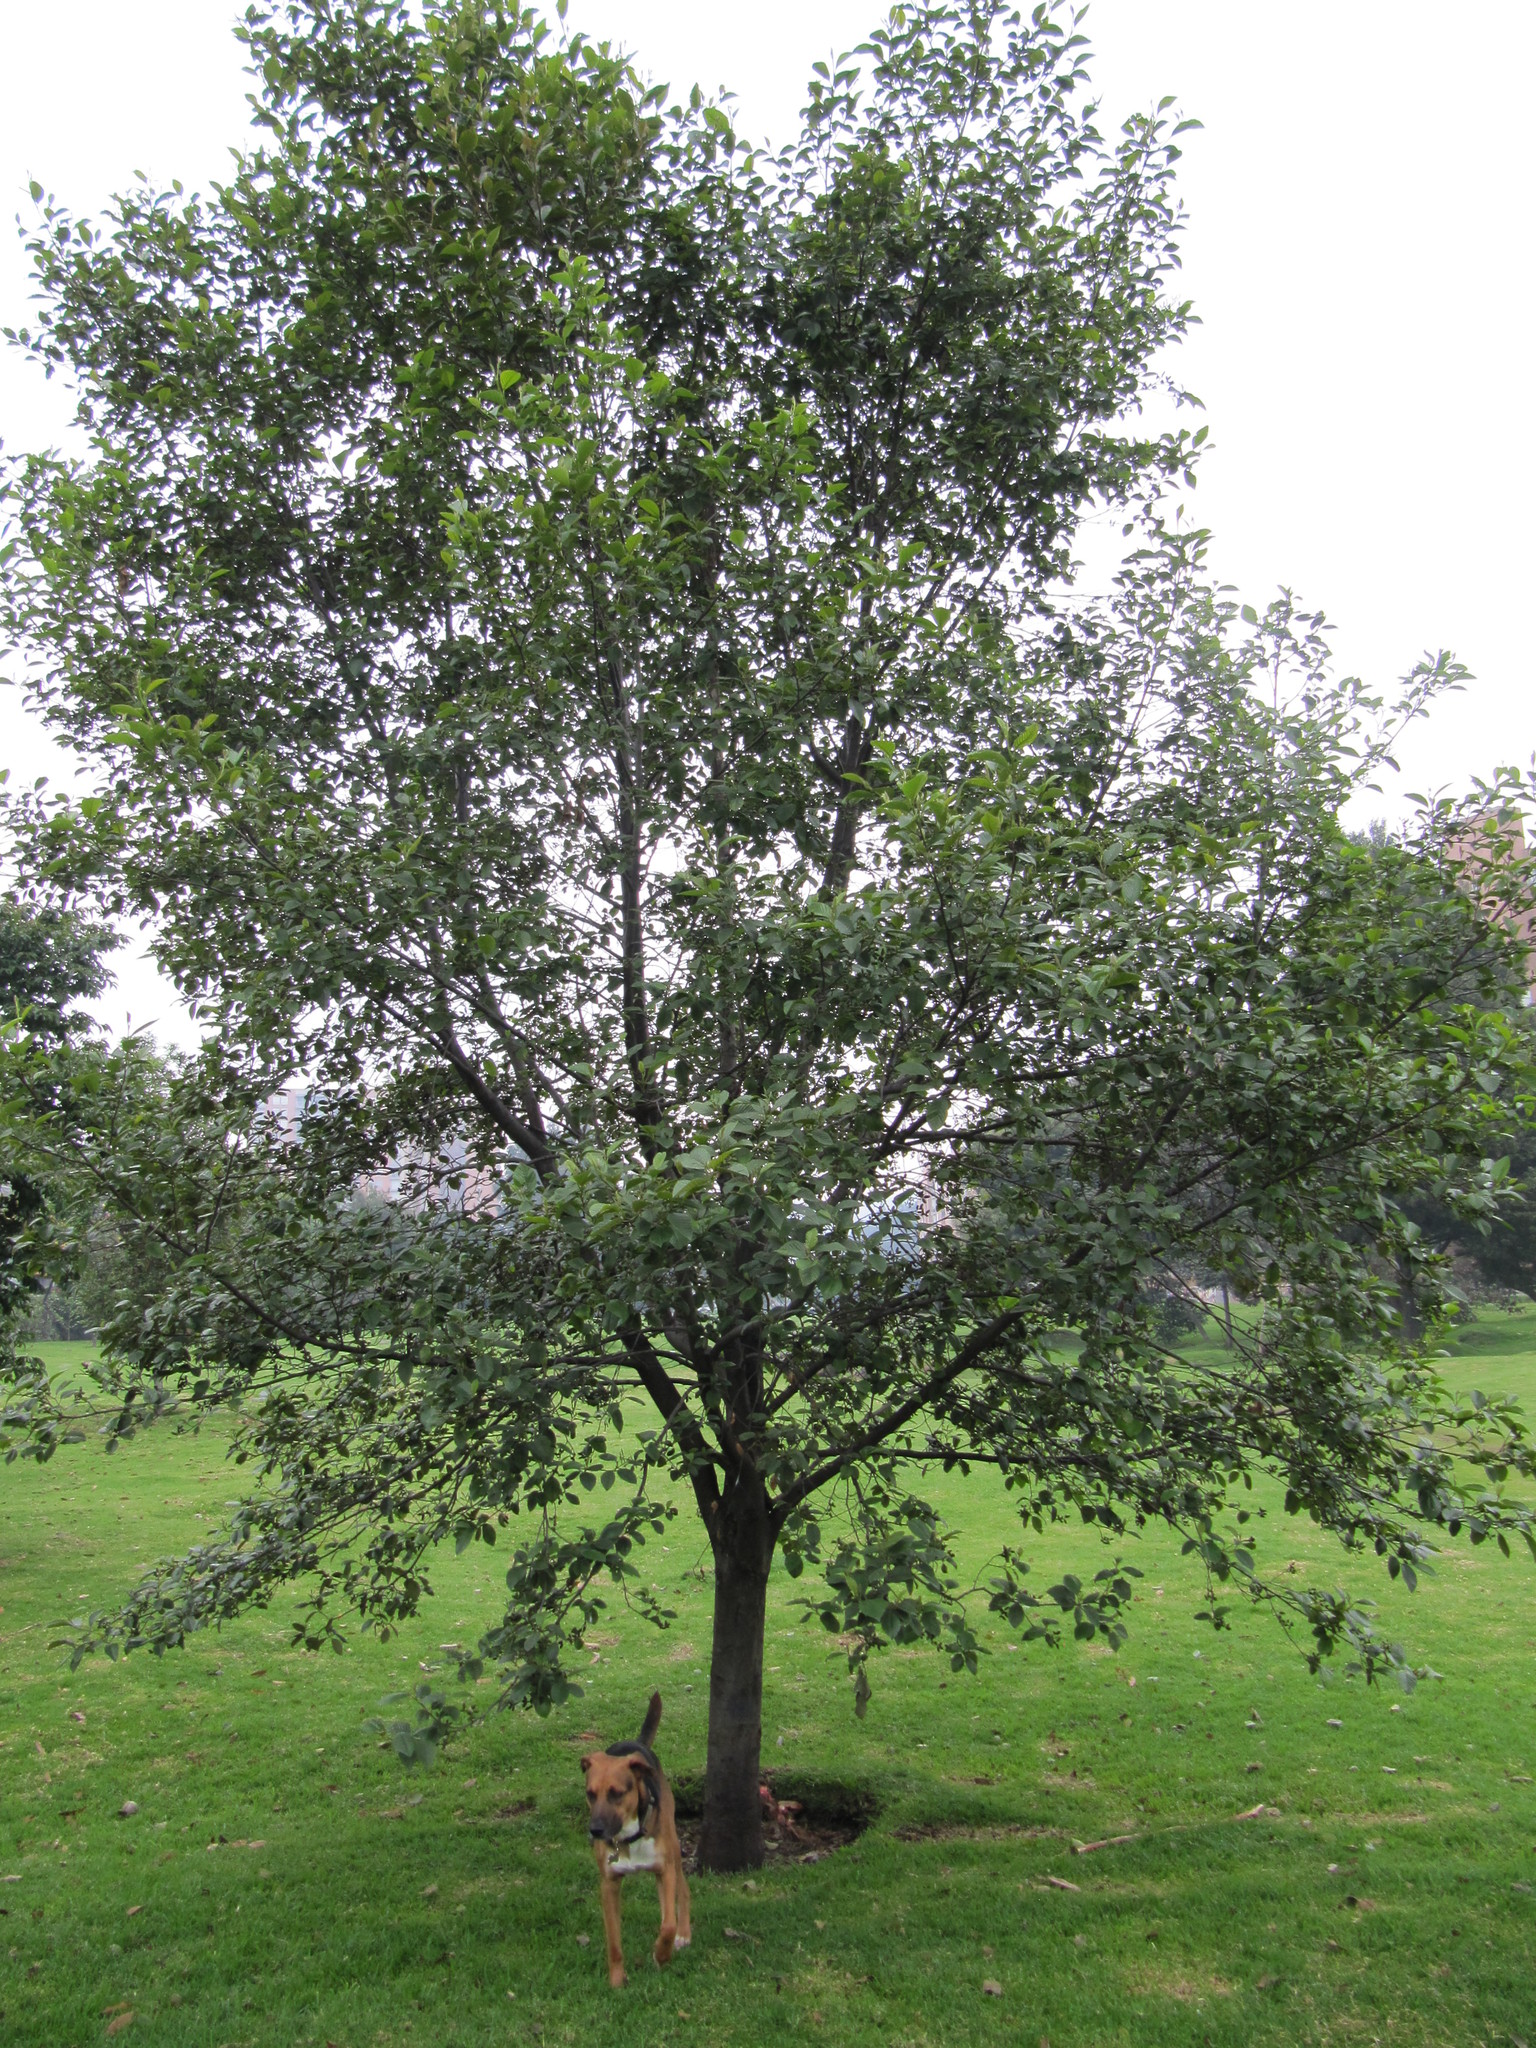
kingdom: Plantae
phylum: Tracheophyta
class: Magnoliopsida
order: Fagales
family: Betulaceae
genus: Alnus
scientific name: Alnus acuminata
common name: Alder
